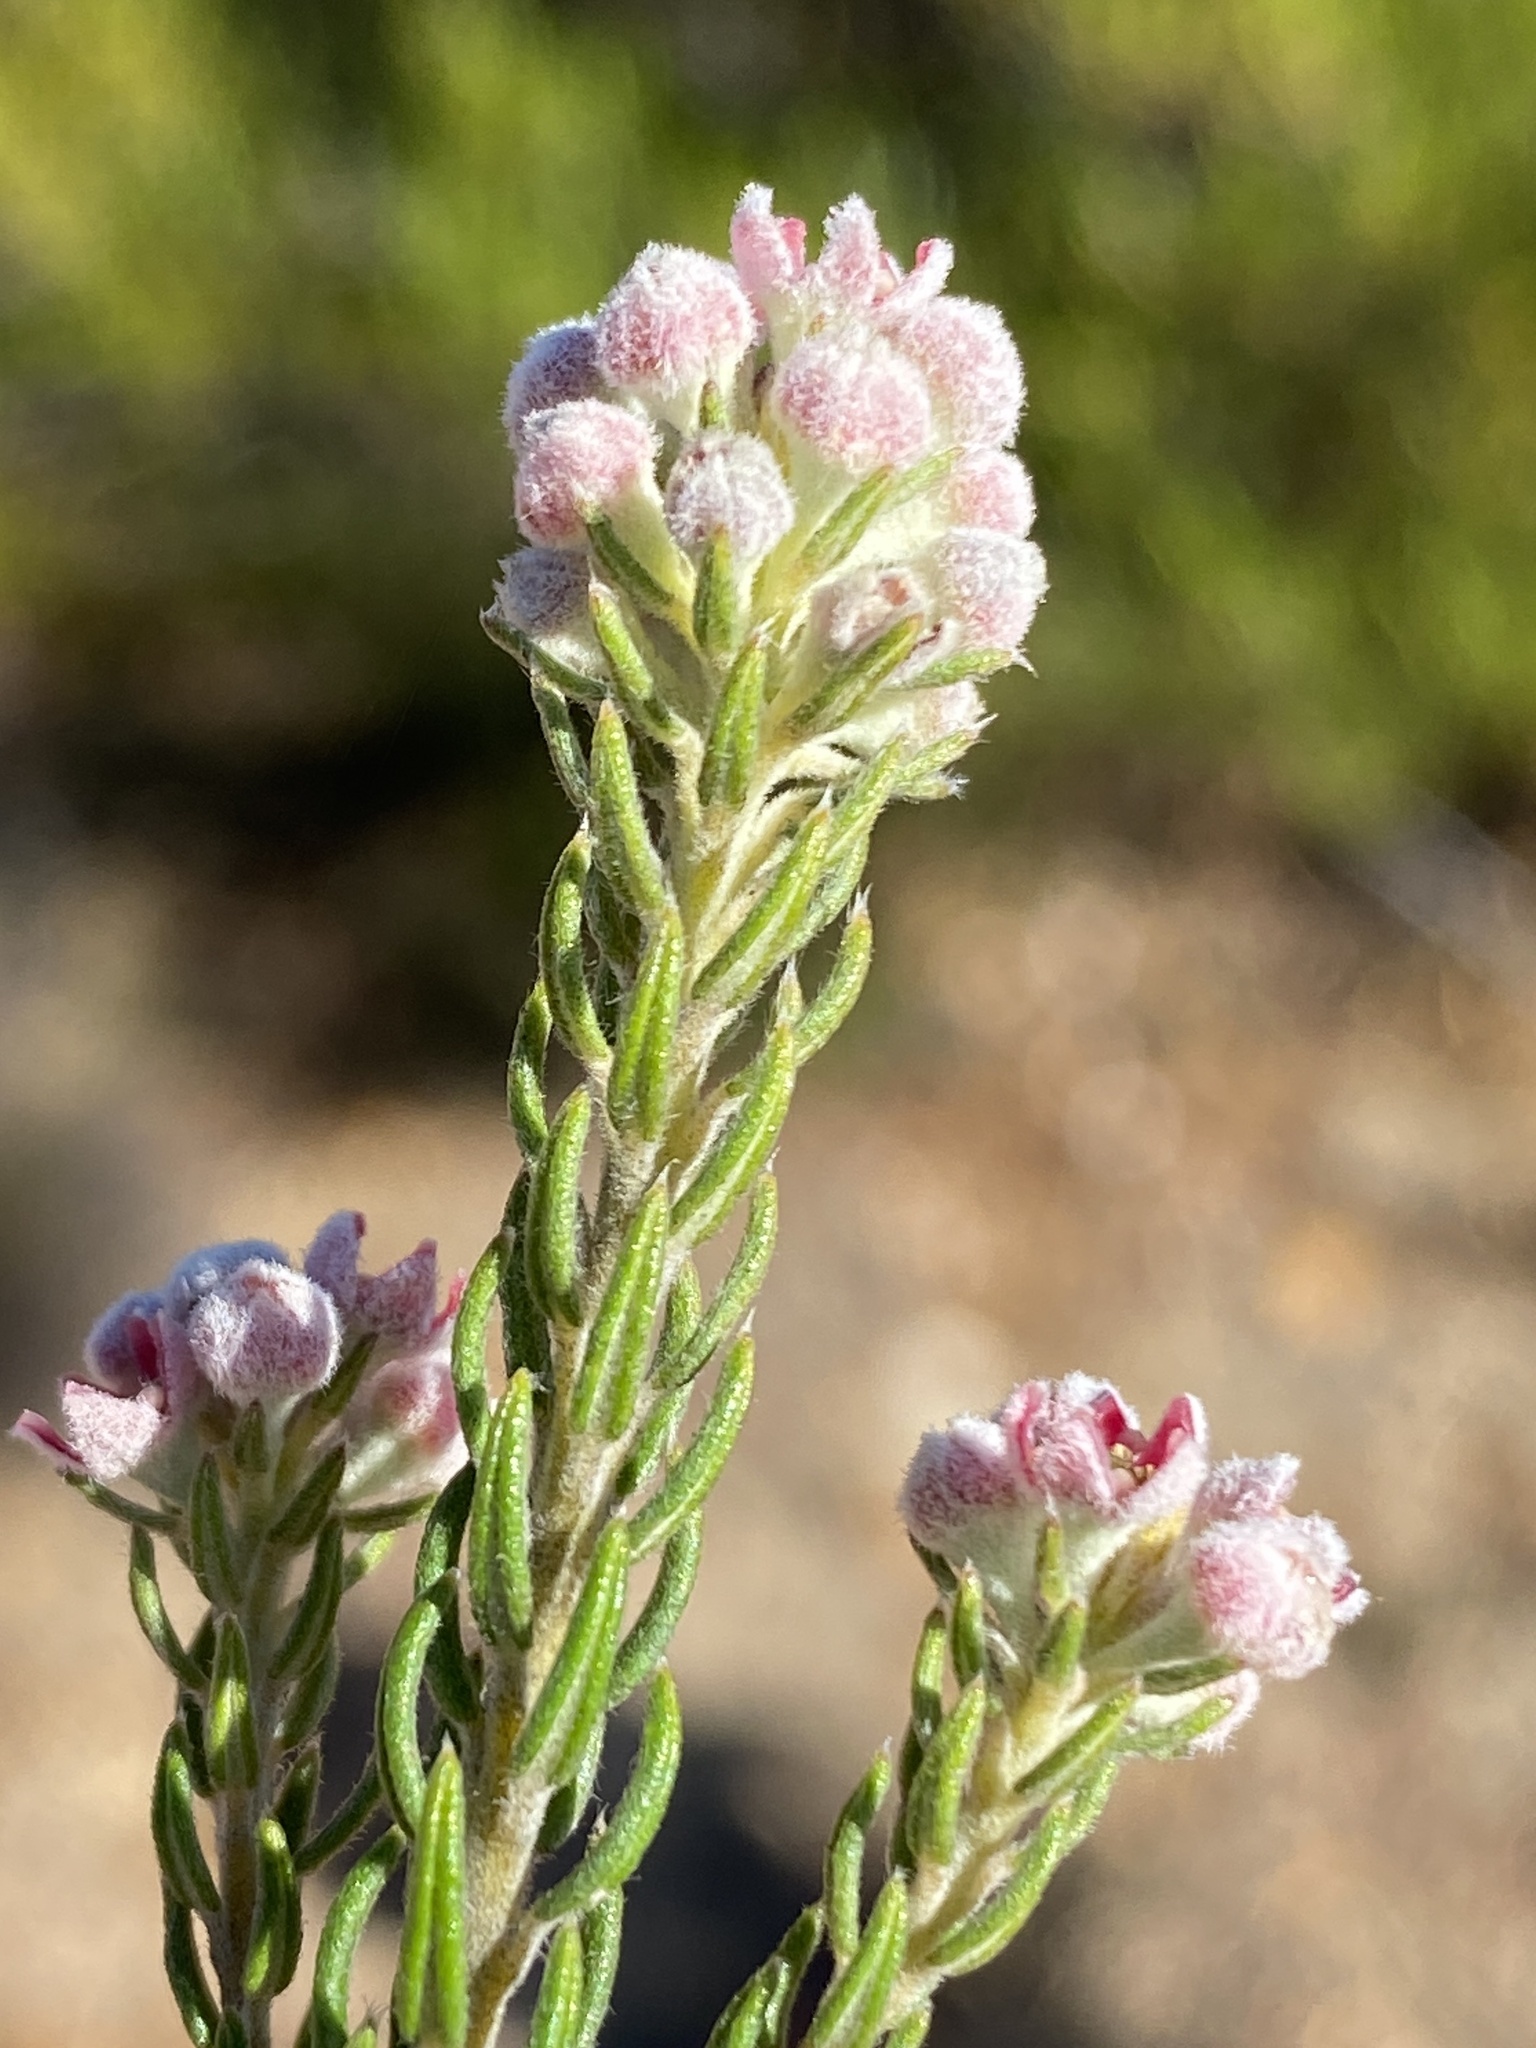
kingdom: Plantae
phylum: Tracheophyta
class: Magnoliopsida
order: Rosales
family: Rhamnaceae
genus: Phylica
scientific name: Phylica purpurea
